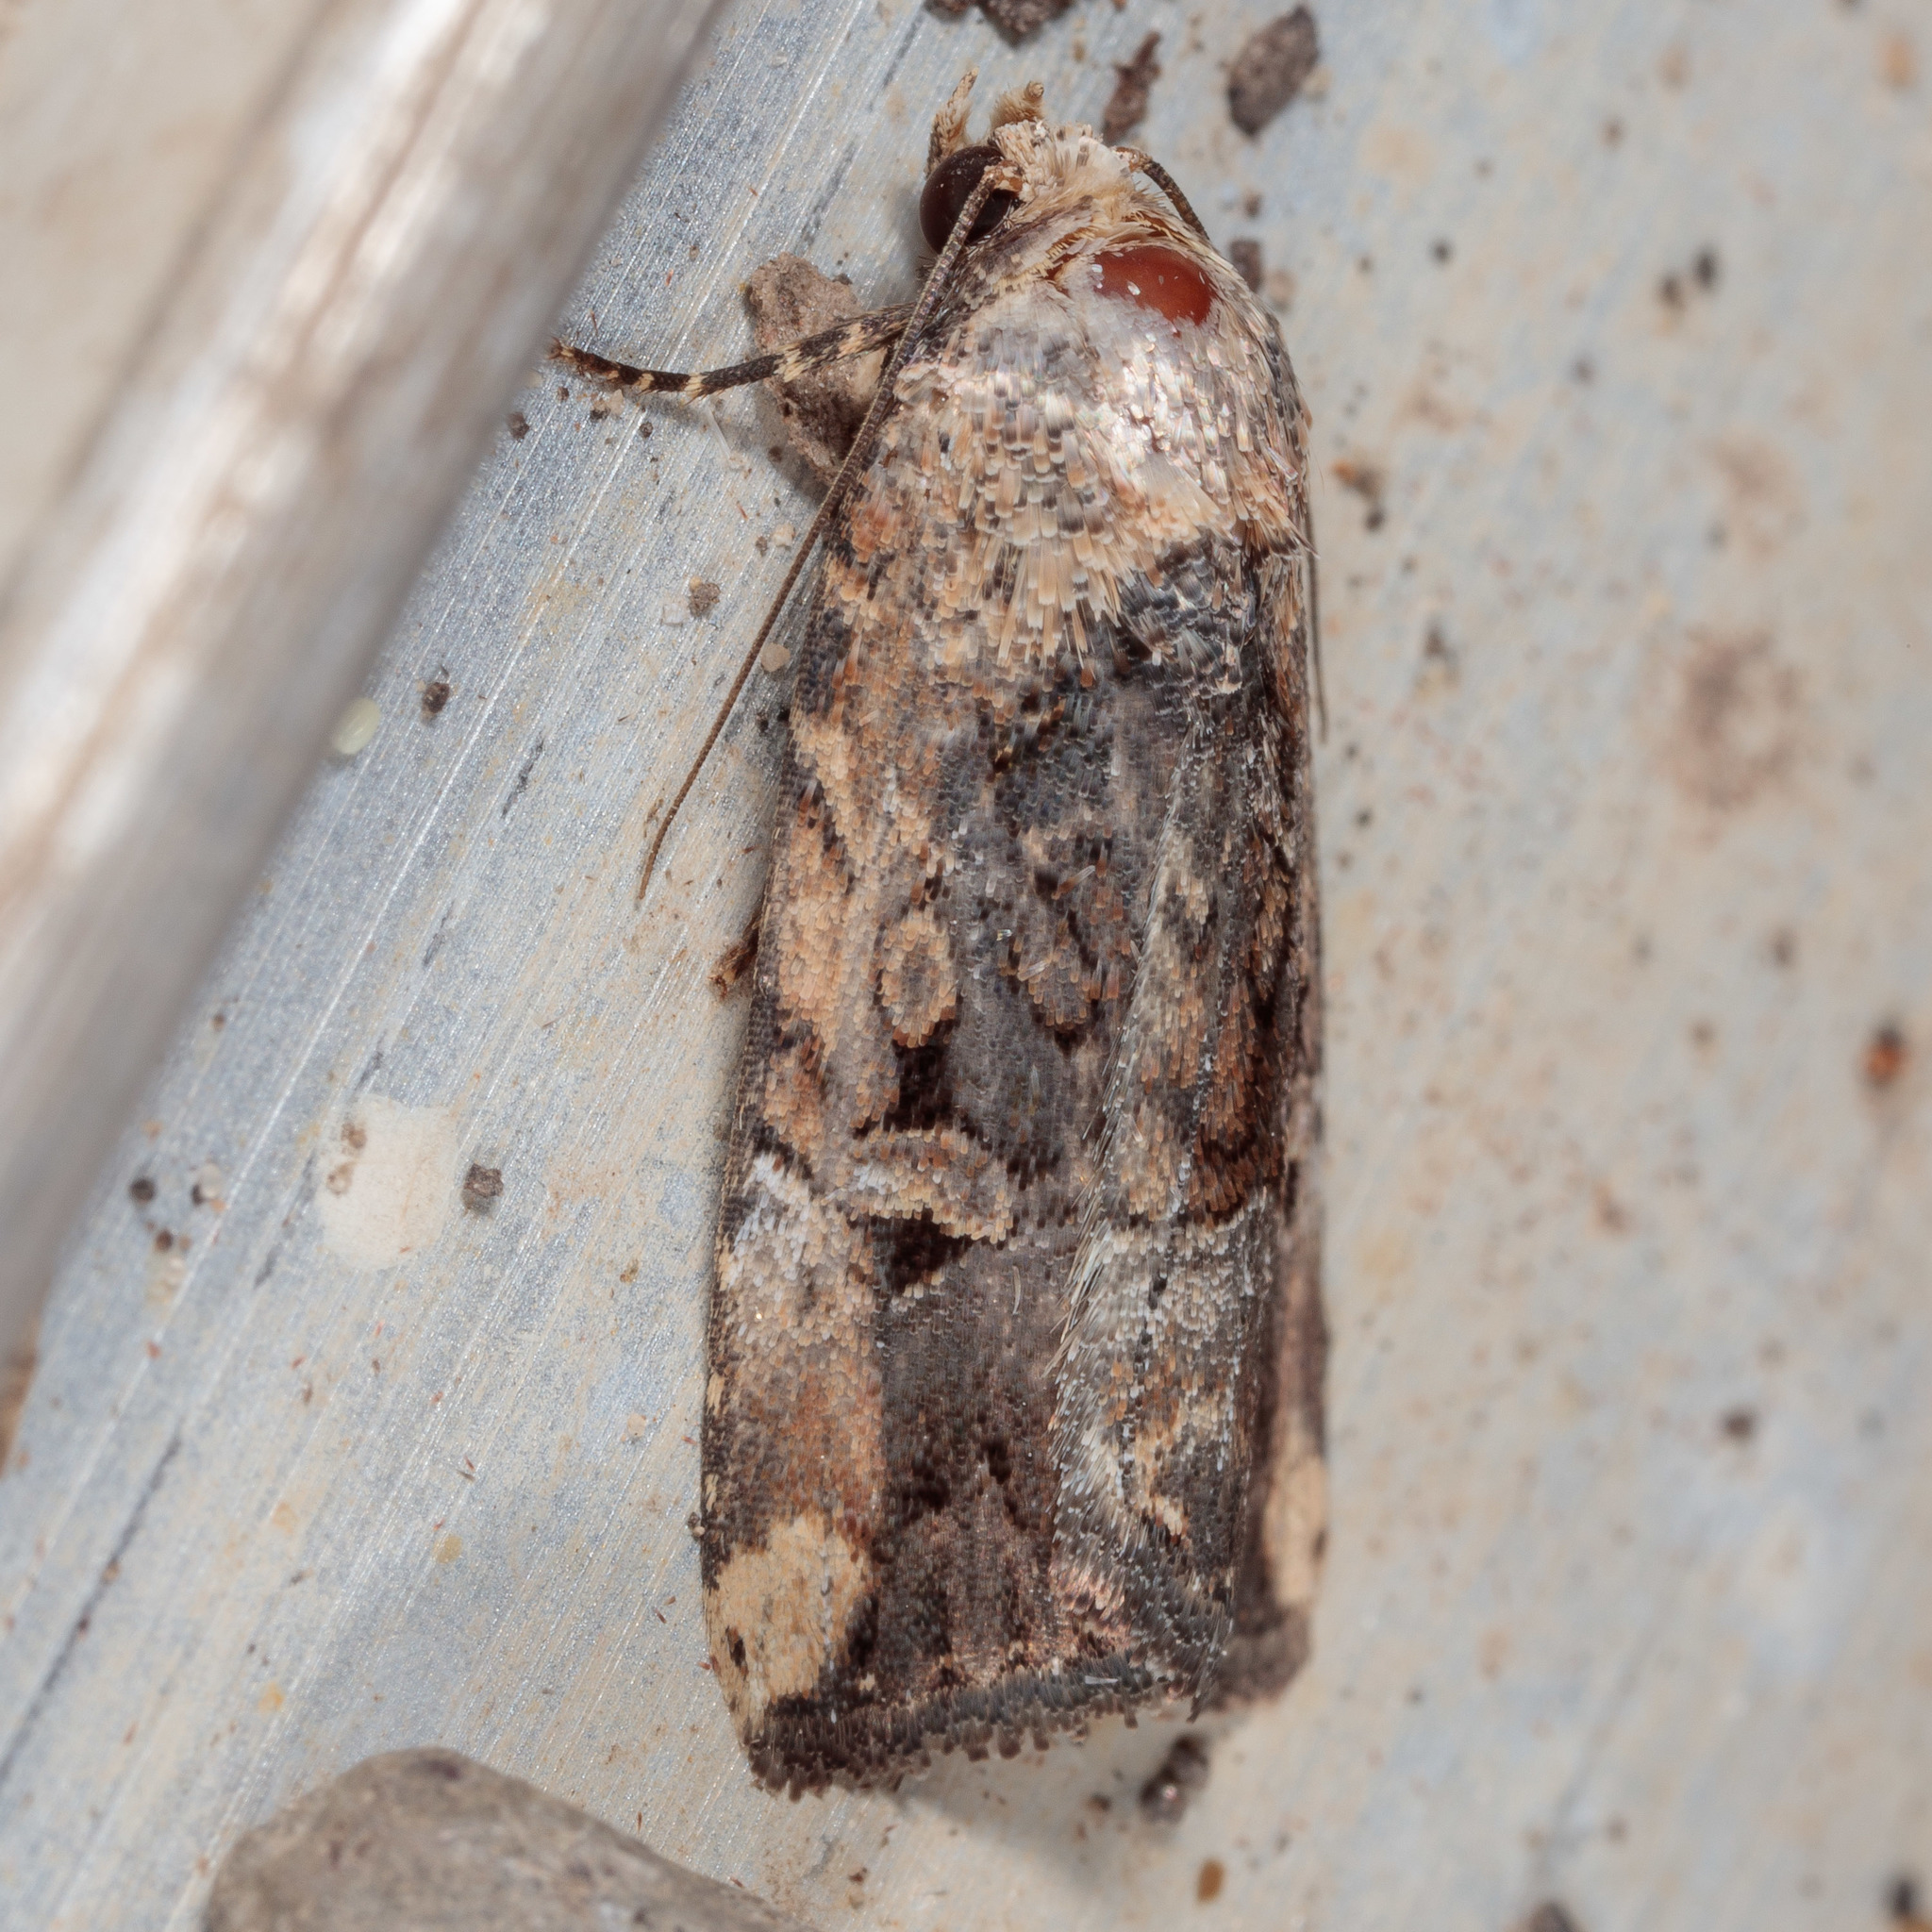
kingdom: Animalia
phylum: Arthropoda
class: Insecta
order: Lepidoptera
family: Noctuidae
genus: Elaphria
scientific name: Elaphria chalcedonia
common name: Chalcedony midget
